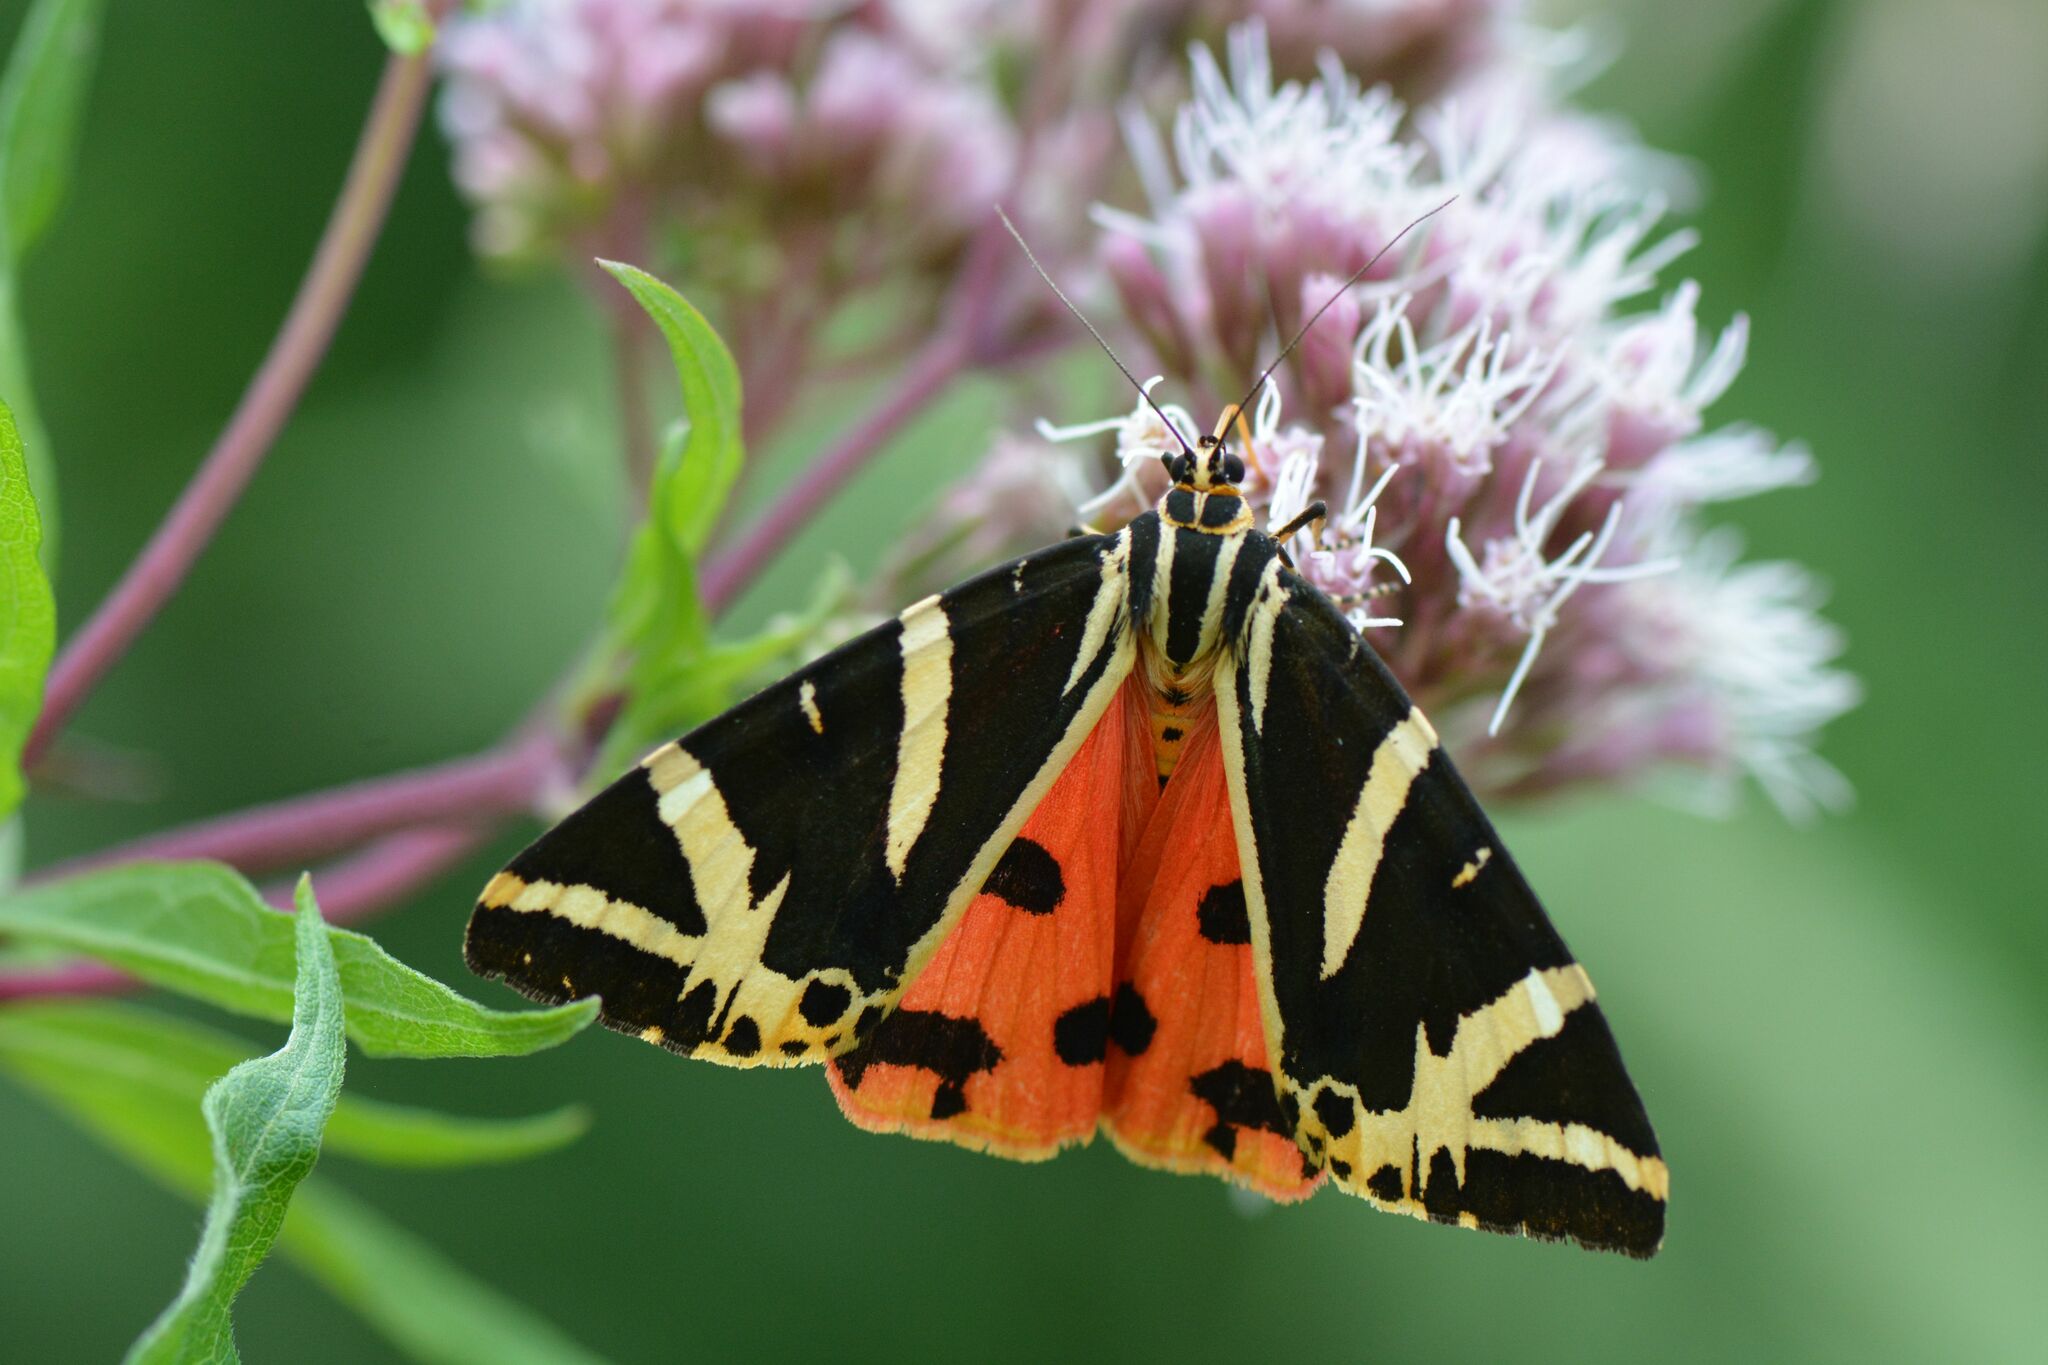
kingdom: Animalia
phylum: Arthropoda
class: Insecta
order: Lepidoptera
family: Erebidae
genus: Euplagia
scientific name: Euplagia quadripunctaria
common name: Jersey tiger
